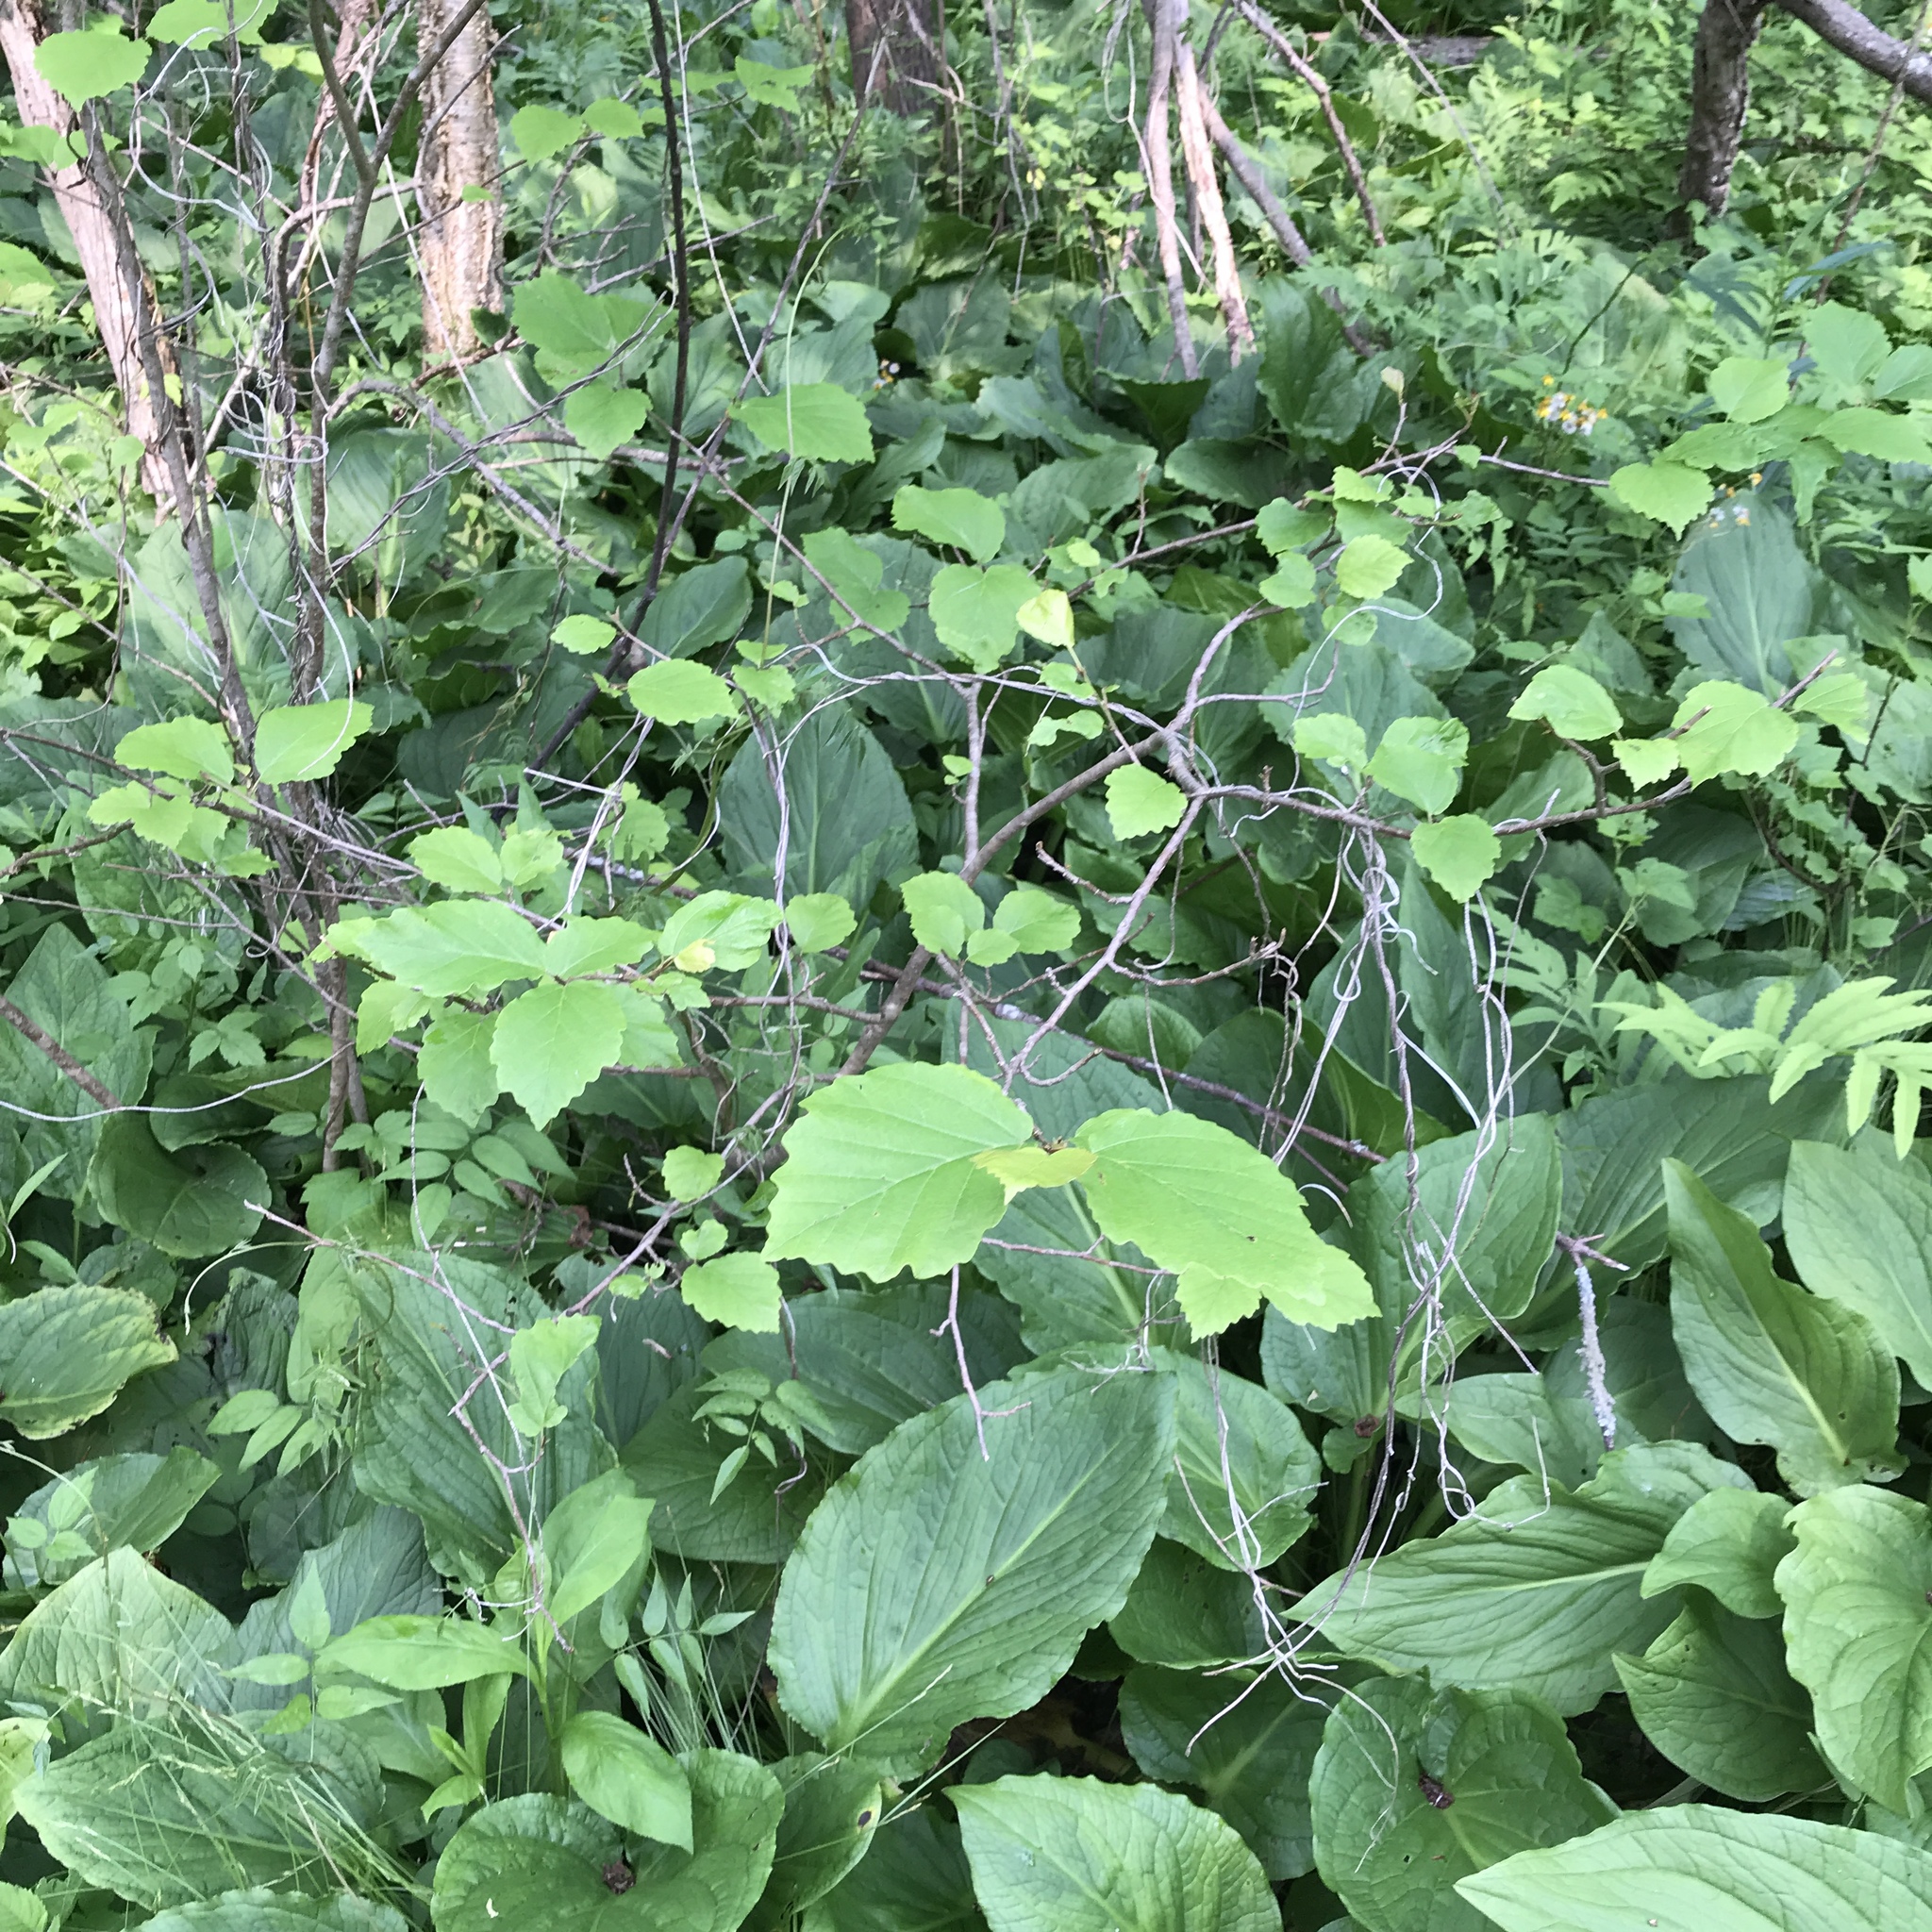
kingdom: Plantae
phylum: Tracheophyta
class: Magnoliopsida
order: Fabales
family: Fabaceae
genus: Apios
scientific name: Apios americana
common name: American potato-bean
